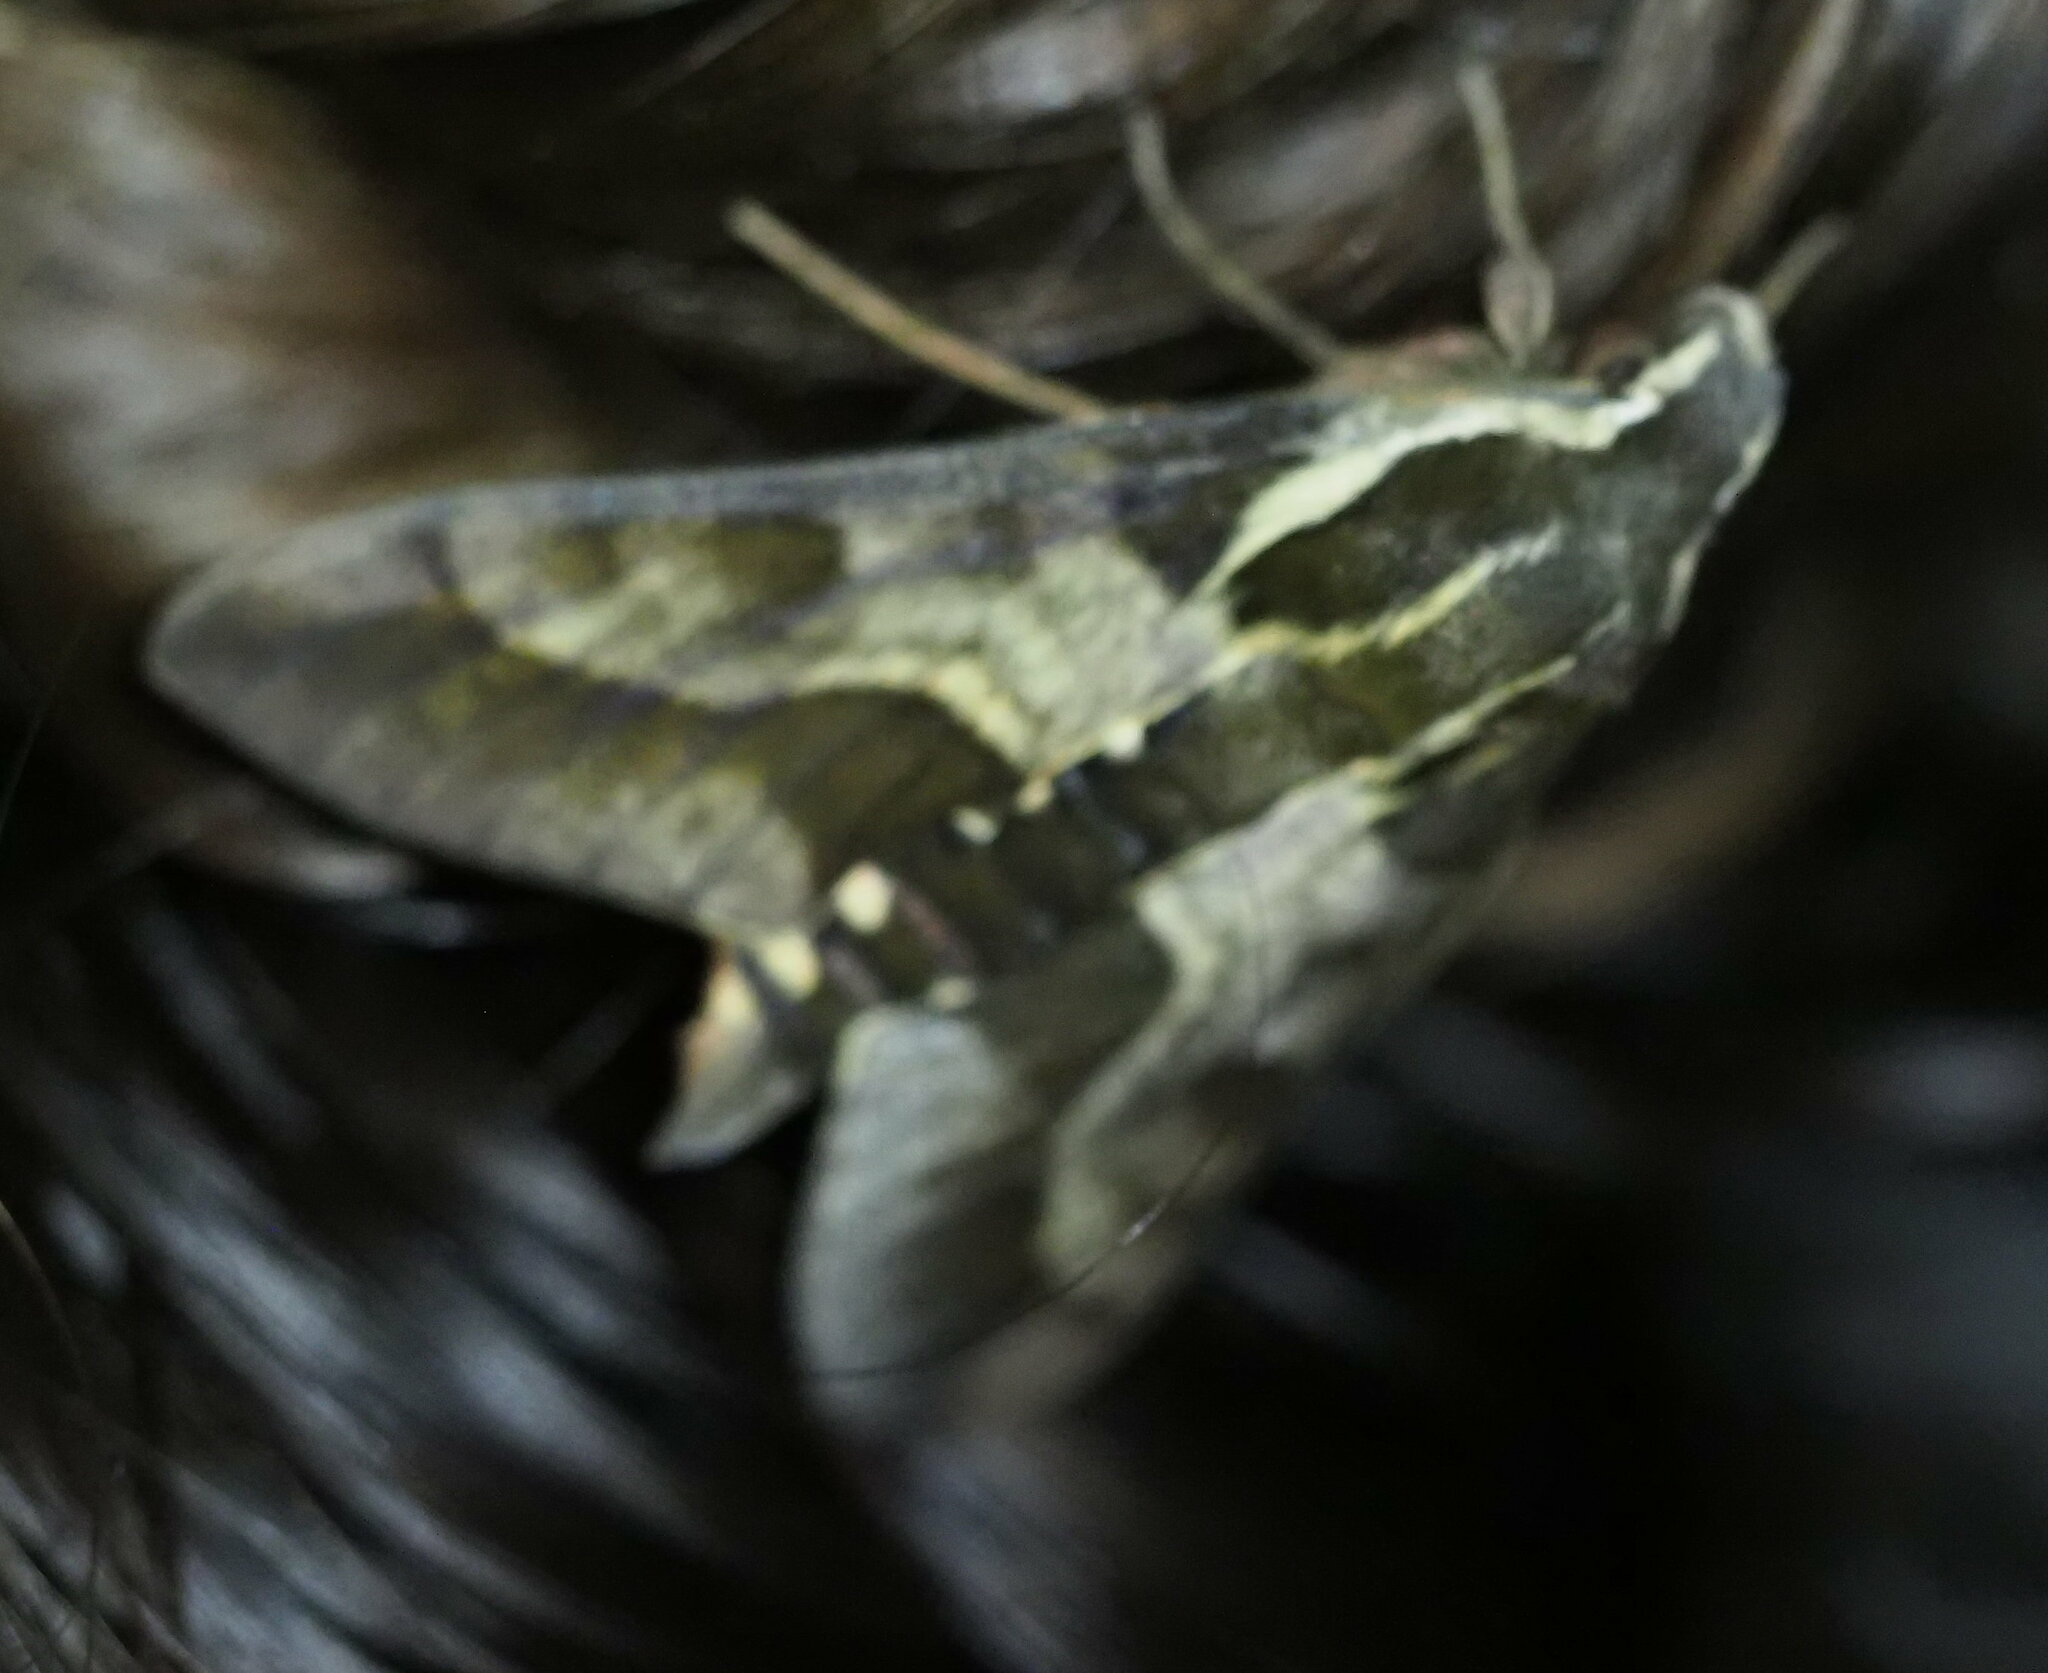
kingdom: Animalia
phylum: Arthropoda
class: Insecta
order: Lepidoptera
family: Sphingidae
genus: Hyles
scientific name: Hyles calida
